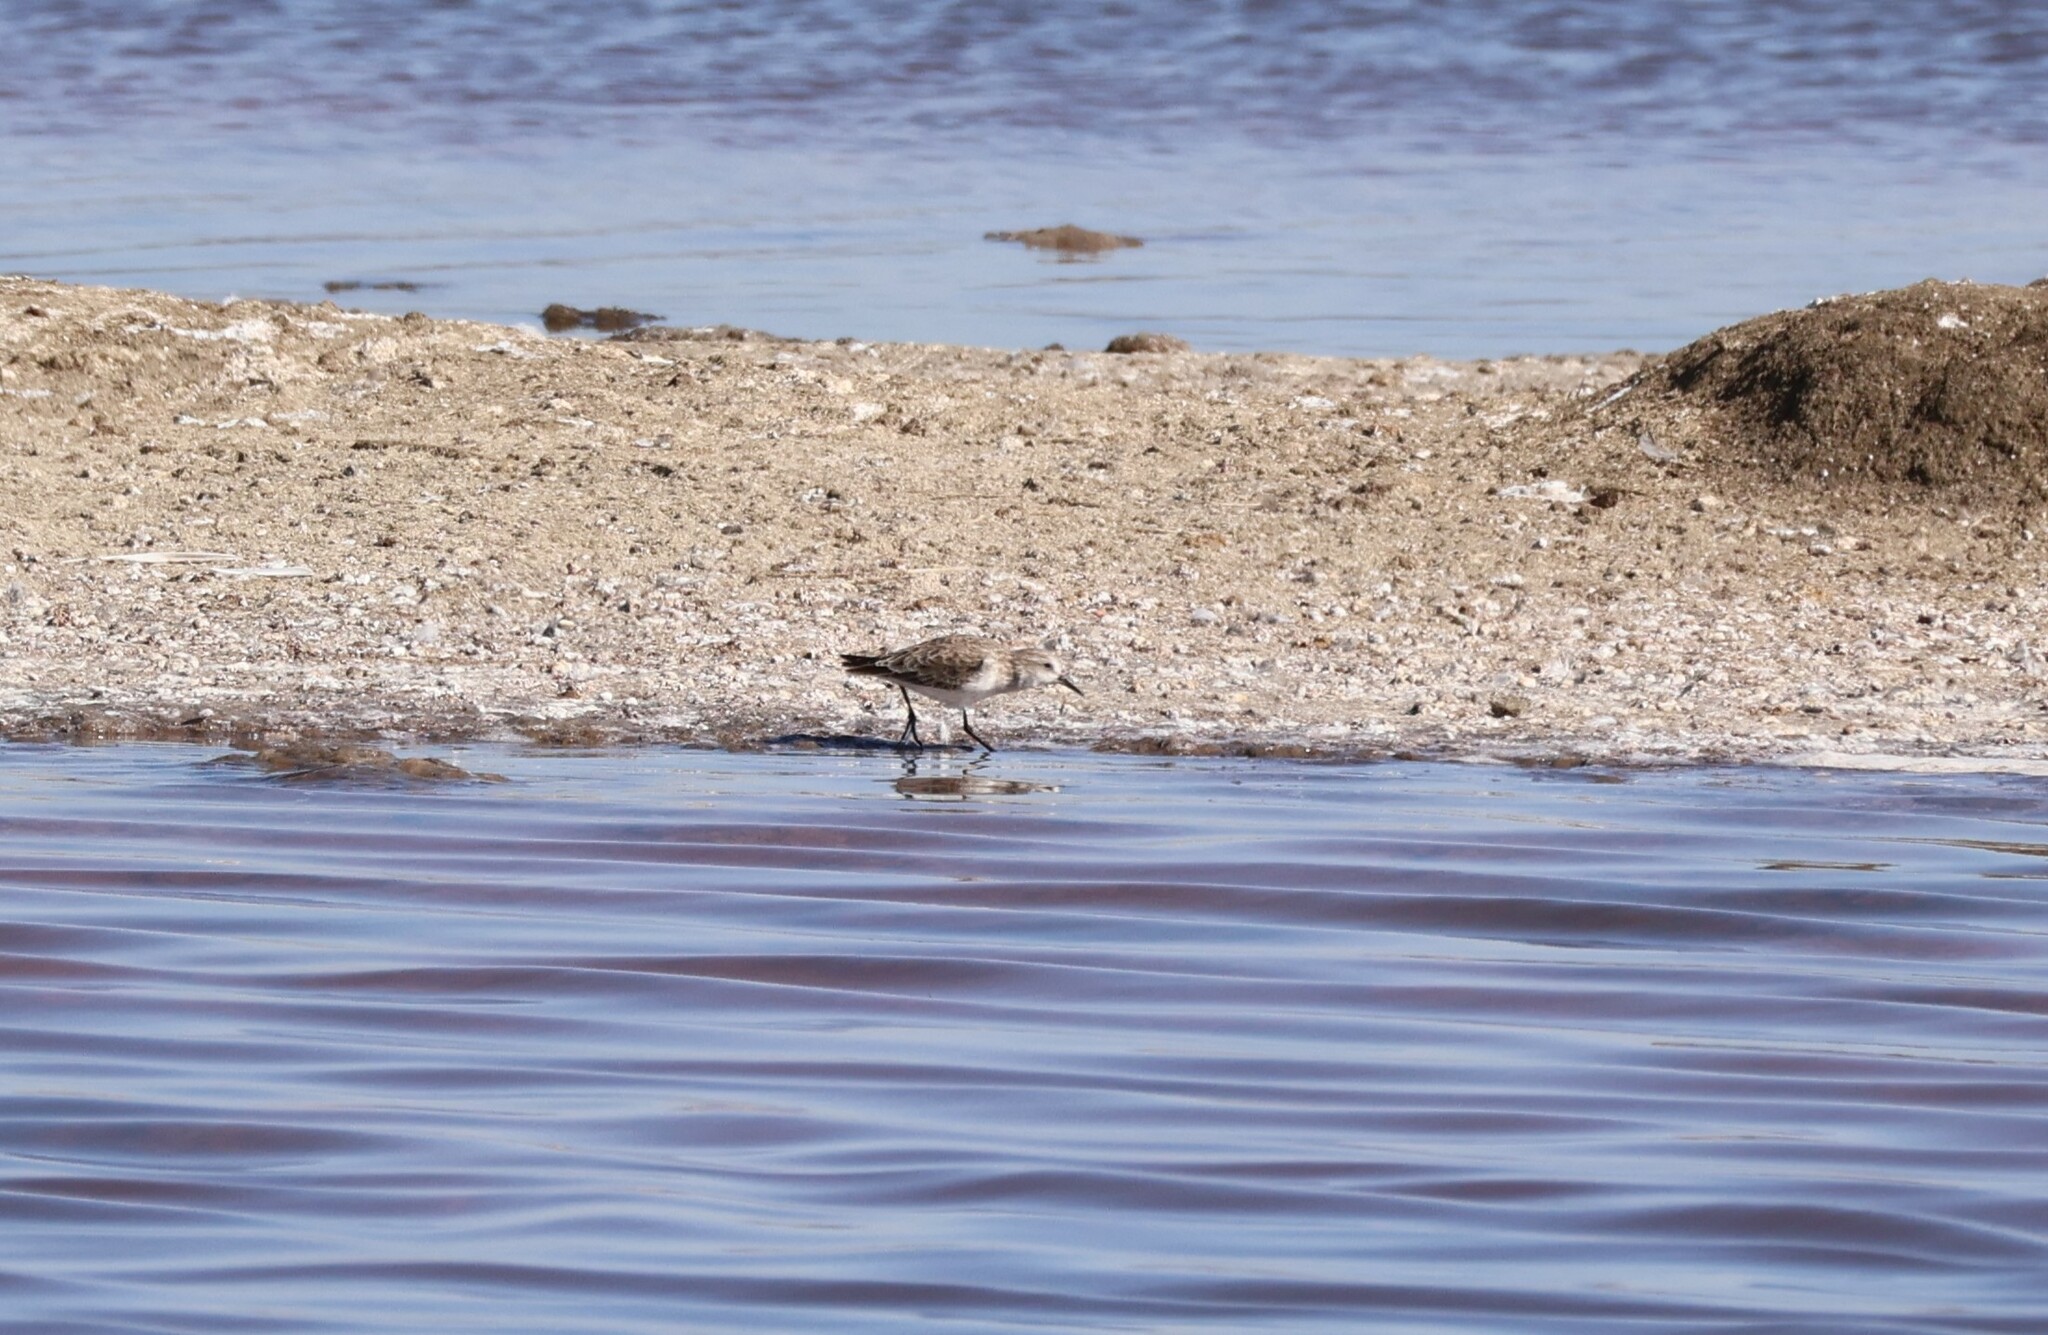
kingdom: Animalia
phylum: Chordata
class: Aves
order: Charadriiformes
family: Scolopacidae
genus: Calidris
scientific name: Calidris minuta
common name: Little stint
